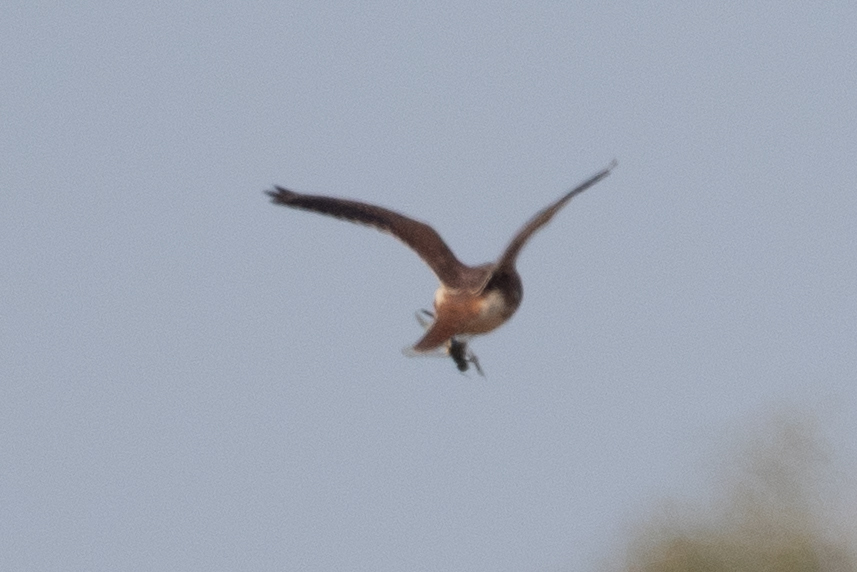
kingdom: Animalia
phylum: Chordata
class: Aves
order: Falconiformes
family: Falconidae
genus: Falco
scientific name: Falco sparverius
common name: American kestrel
